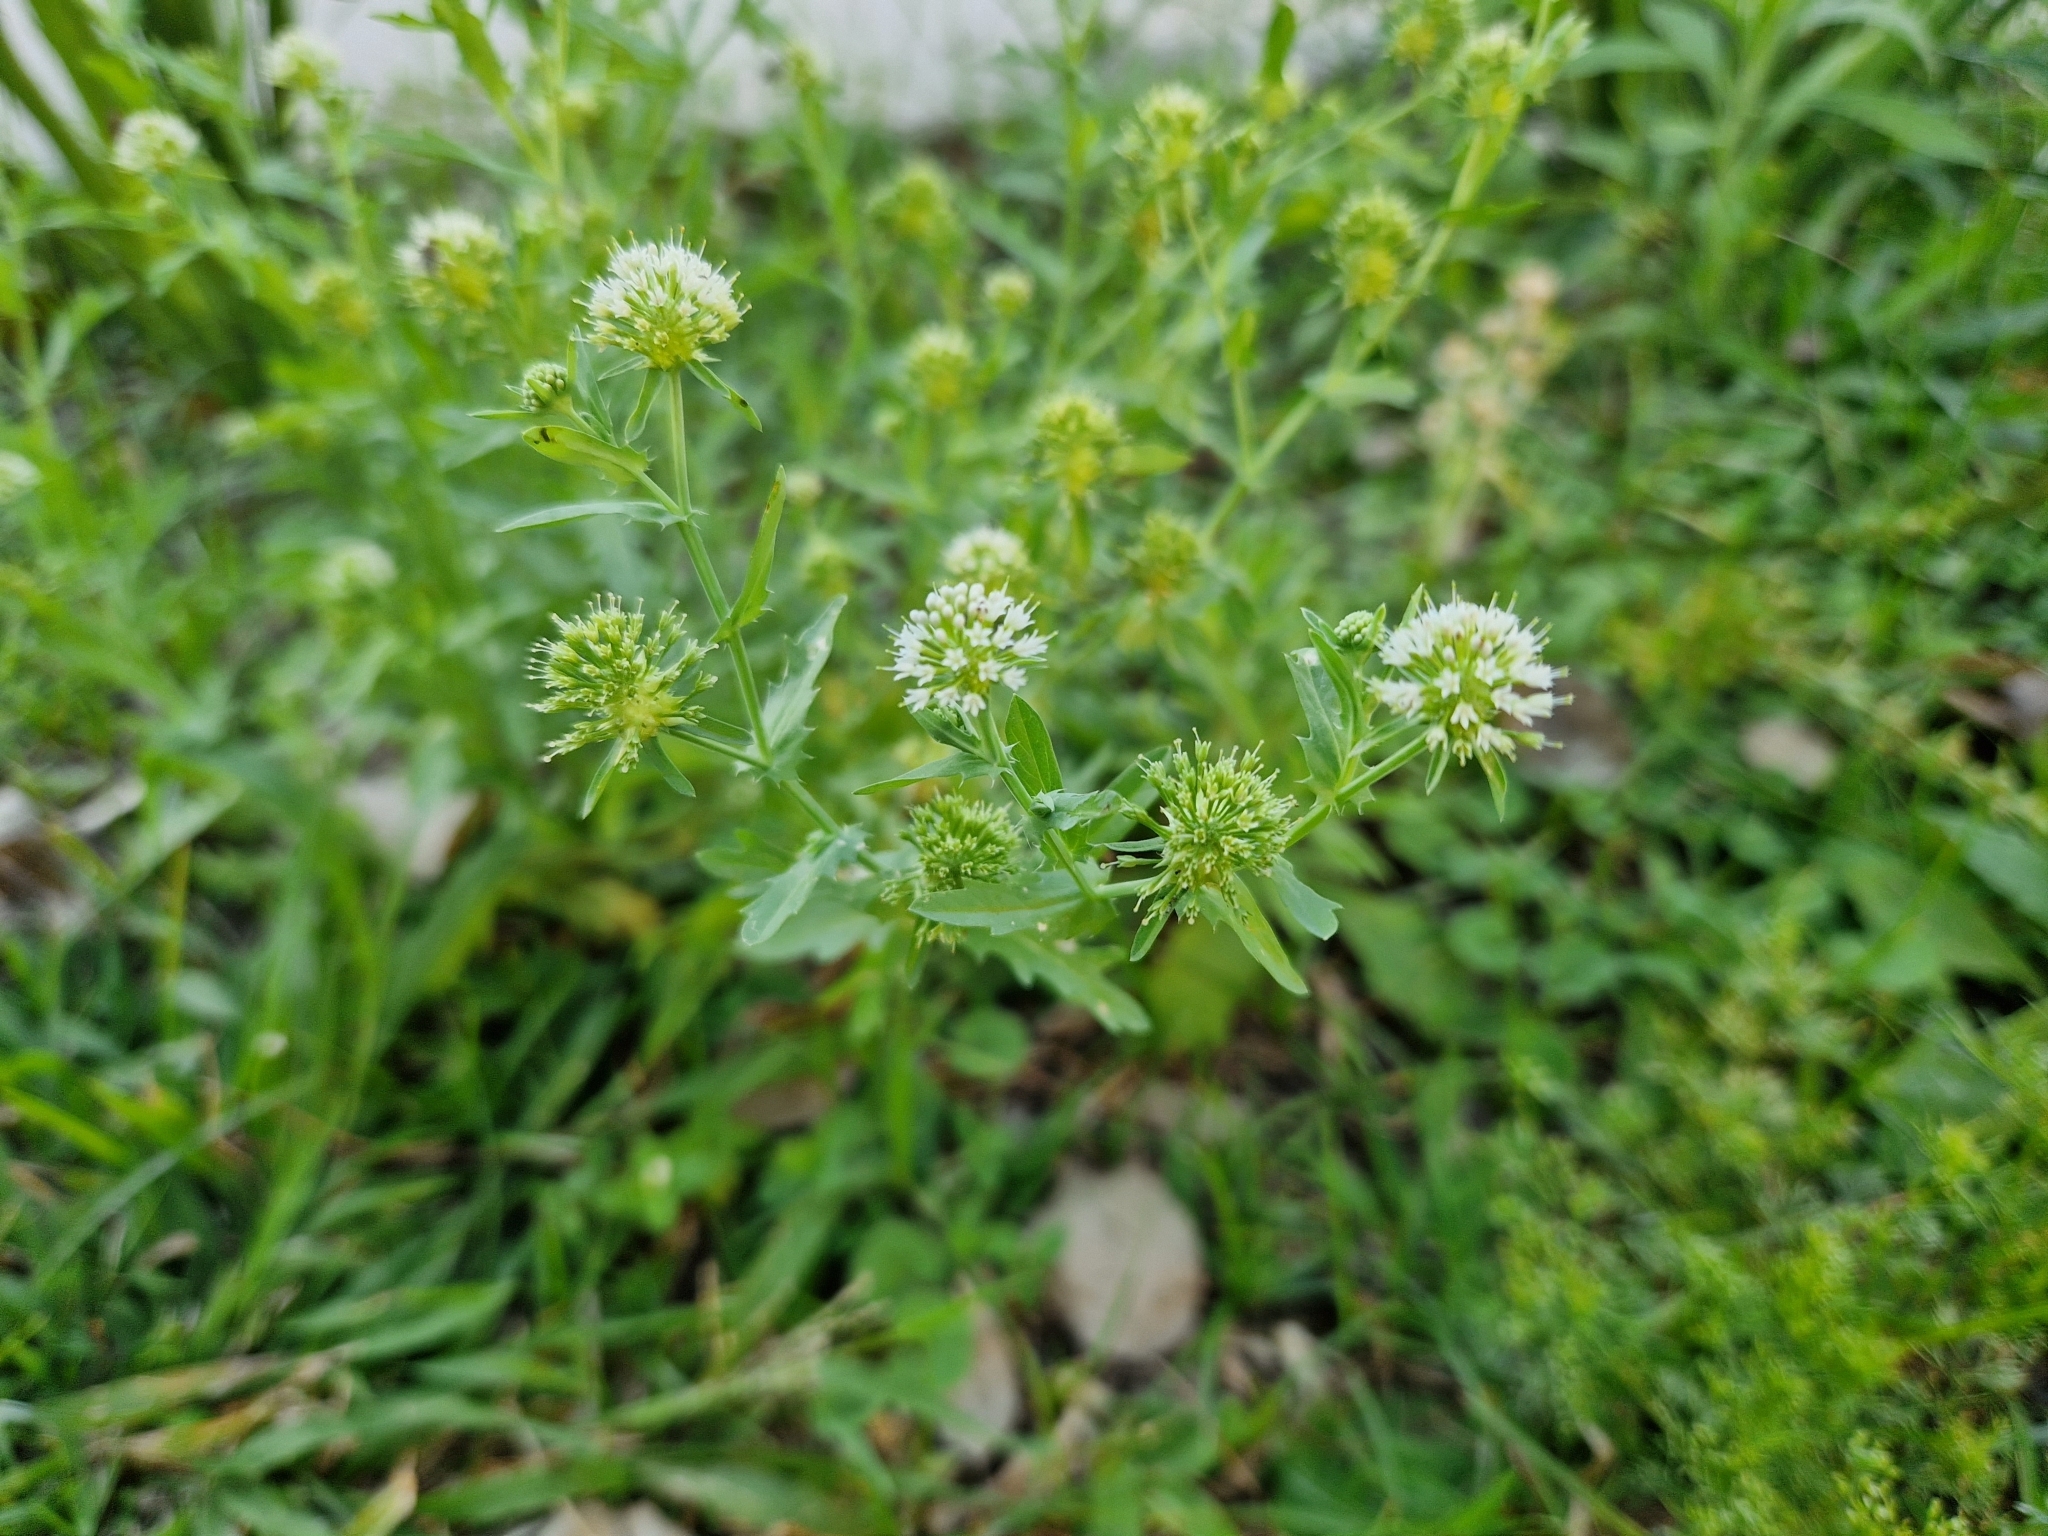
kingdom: Plantae
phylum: Tracheophyta
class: Magnoliopsida
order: Asterales
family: Calyceraceae
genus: Acicarpha
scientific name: Acicarpha tribuloides
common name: Madam gorgon
